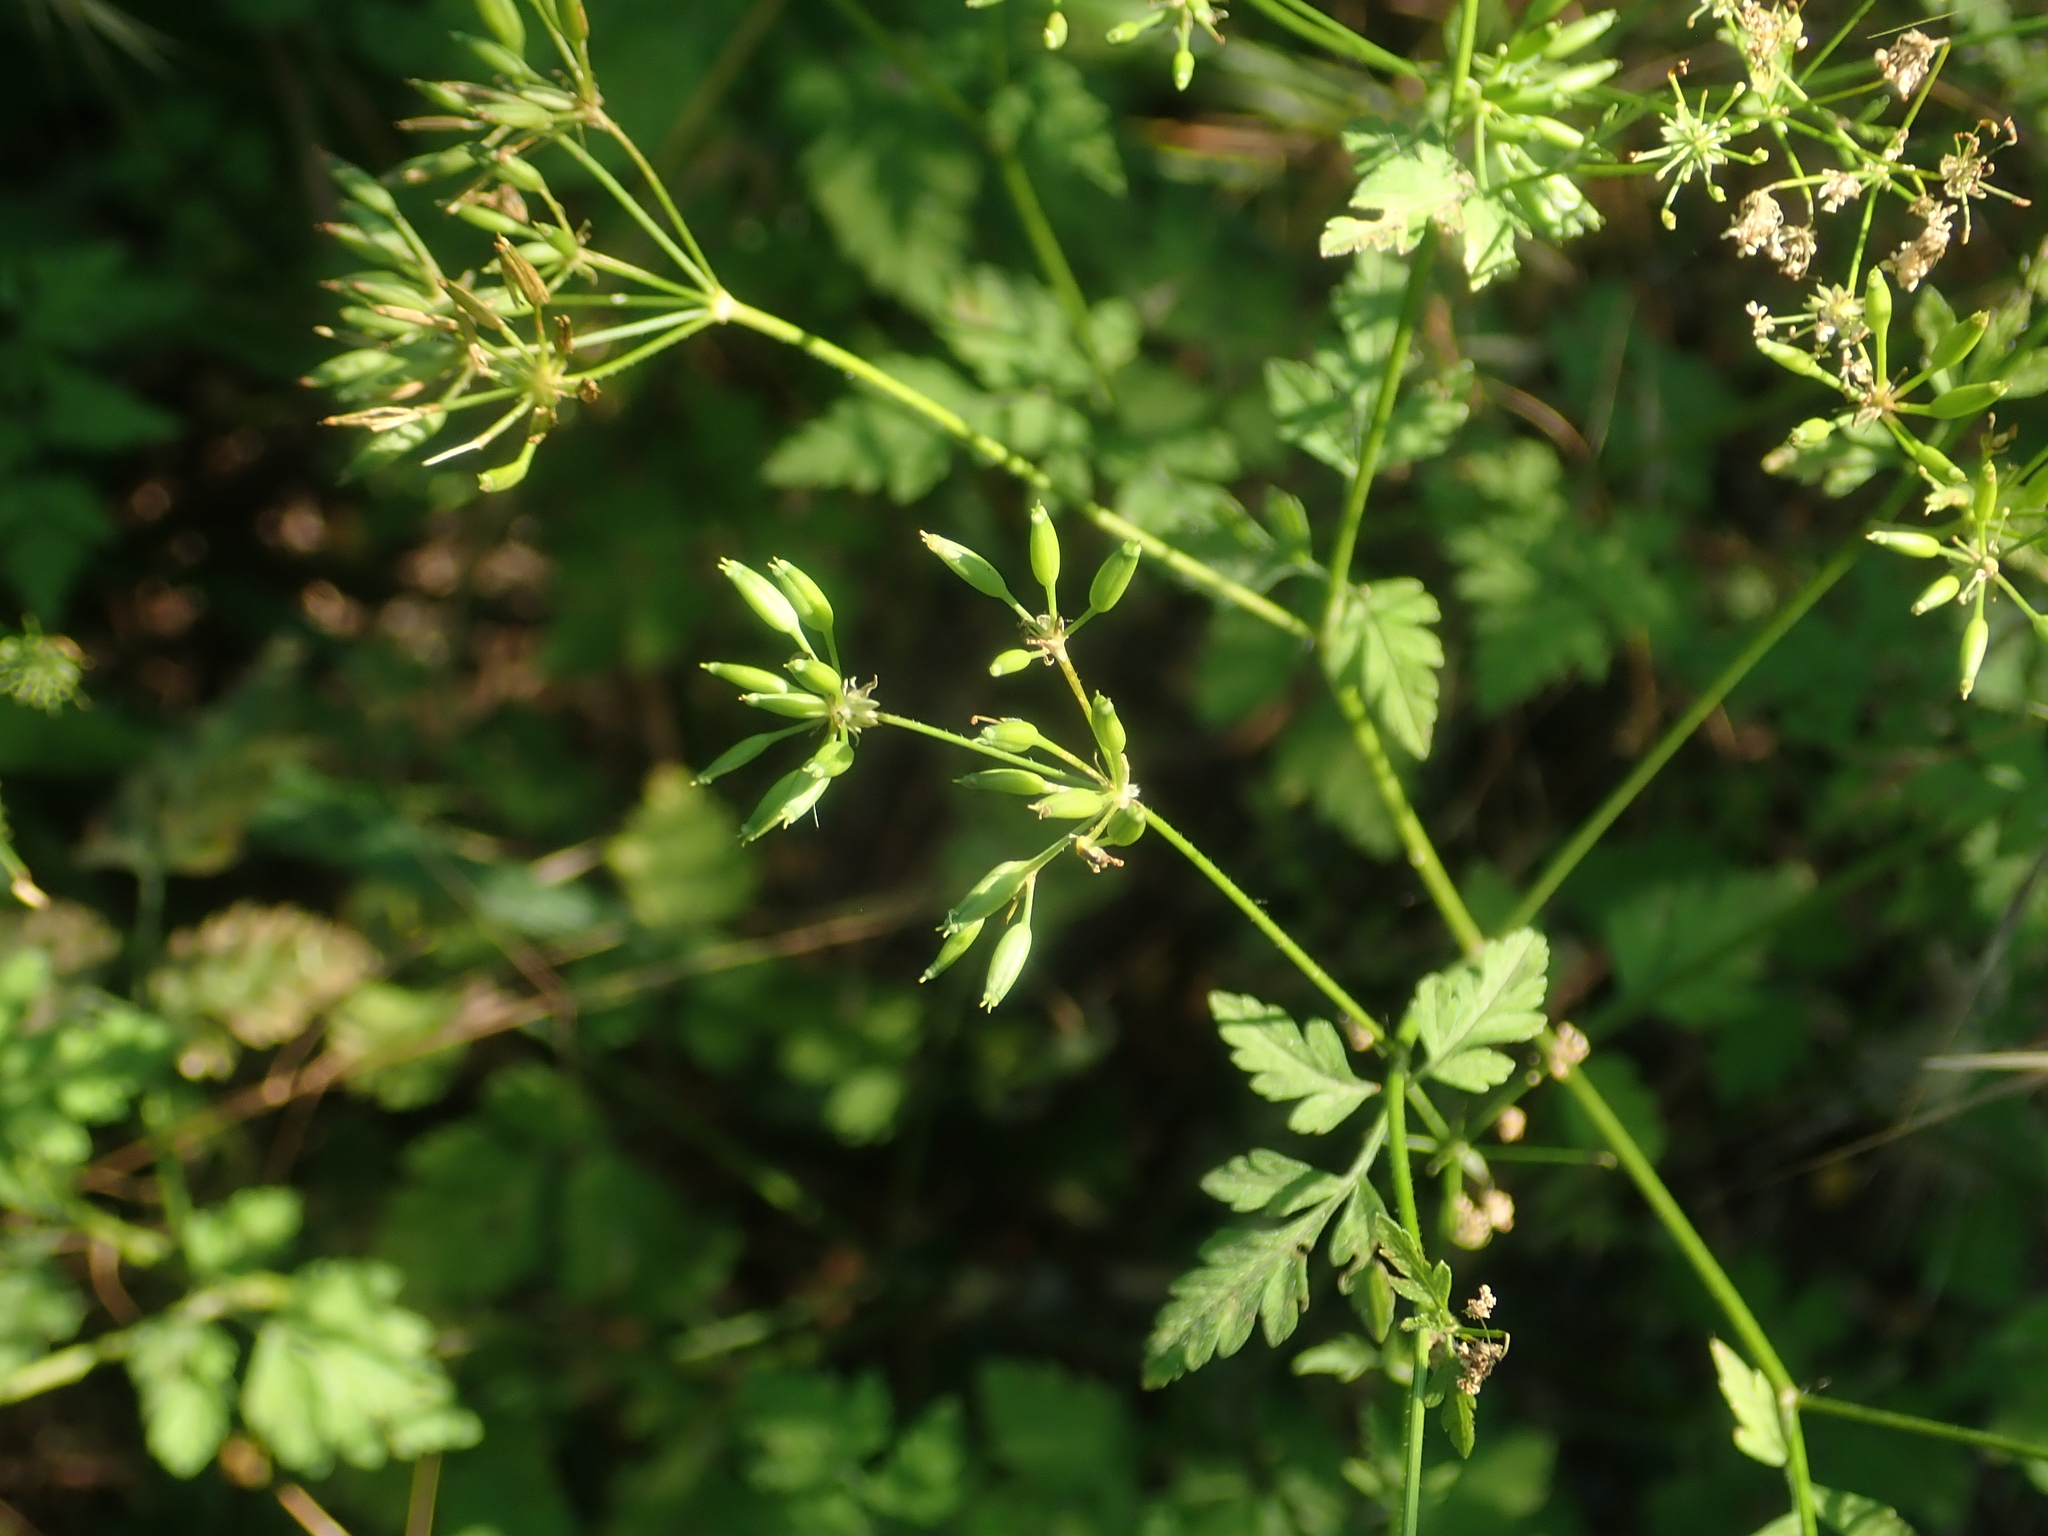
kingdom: Plantae
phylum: Tracheophyta
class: Magnoliopsida
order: Apiales
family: Apiaceae
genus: Chaerophyllum
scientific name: Chaerophyllum temulum
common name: Rough chervil
